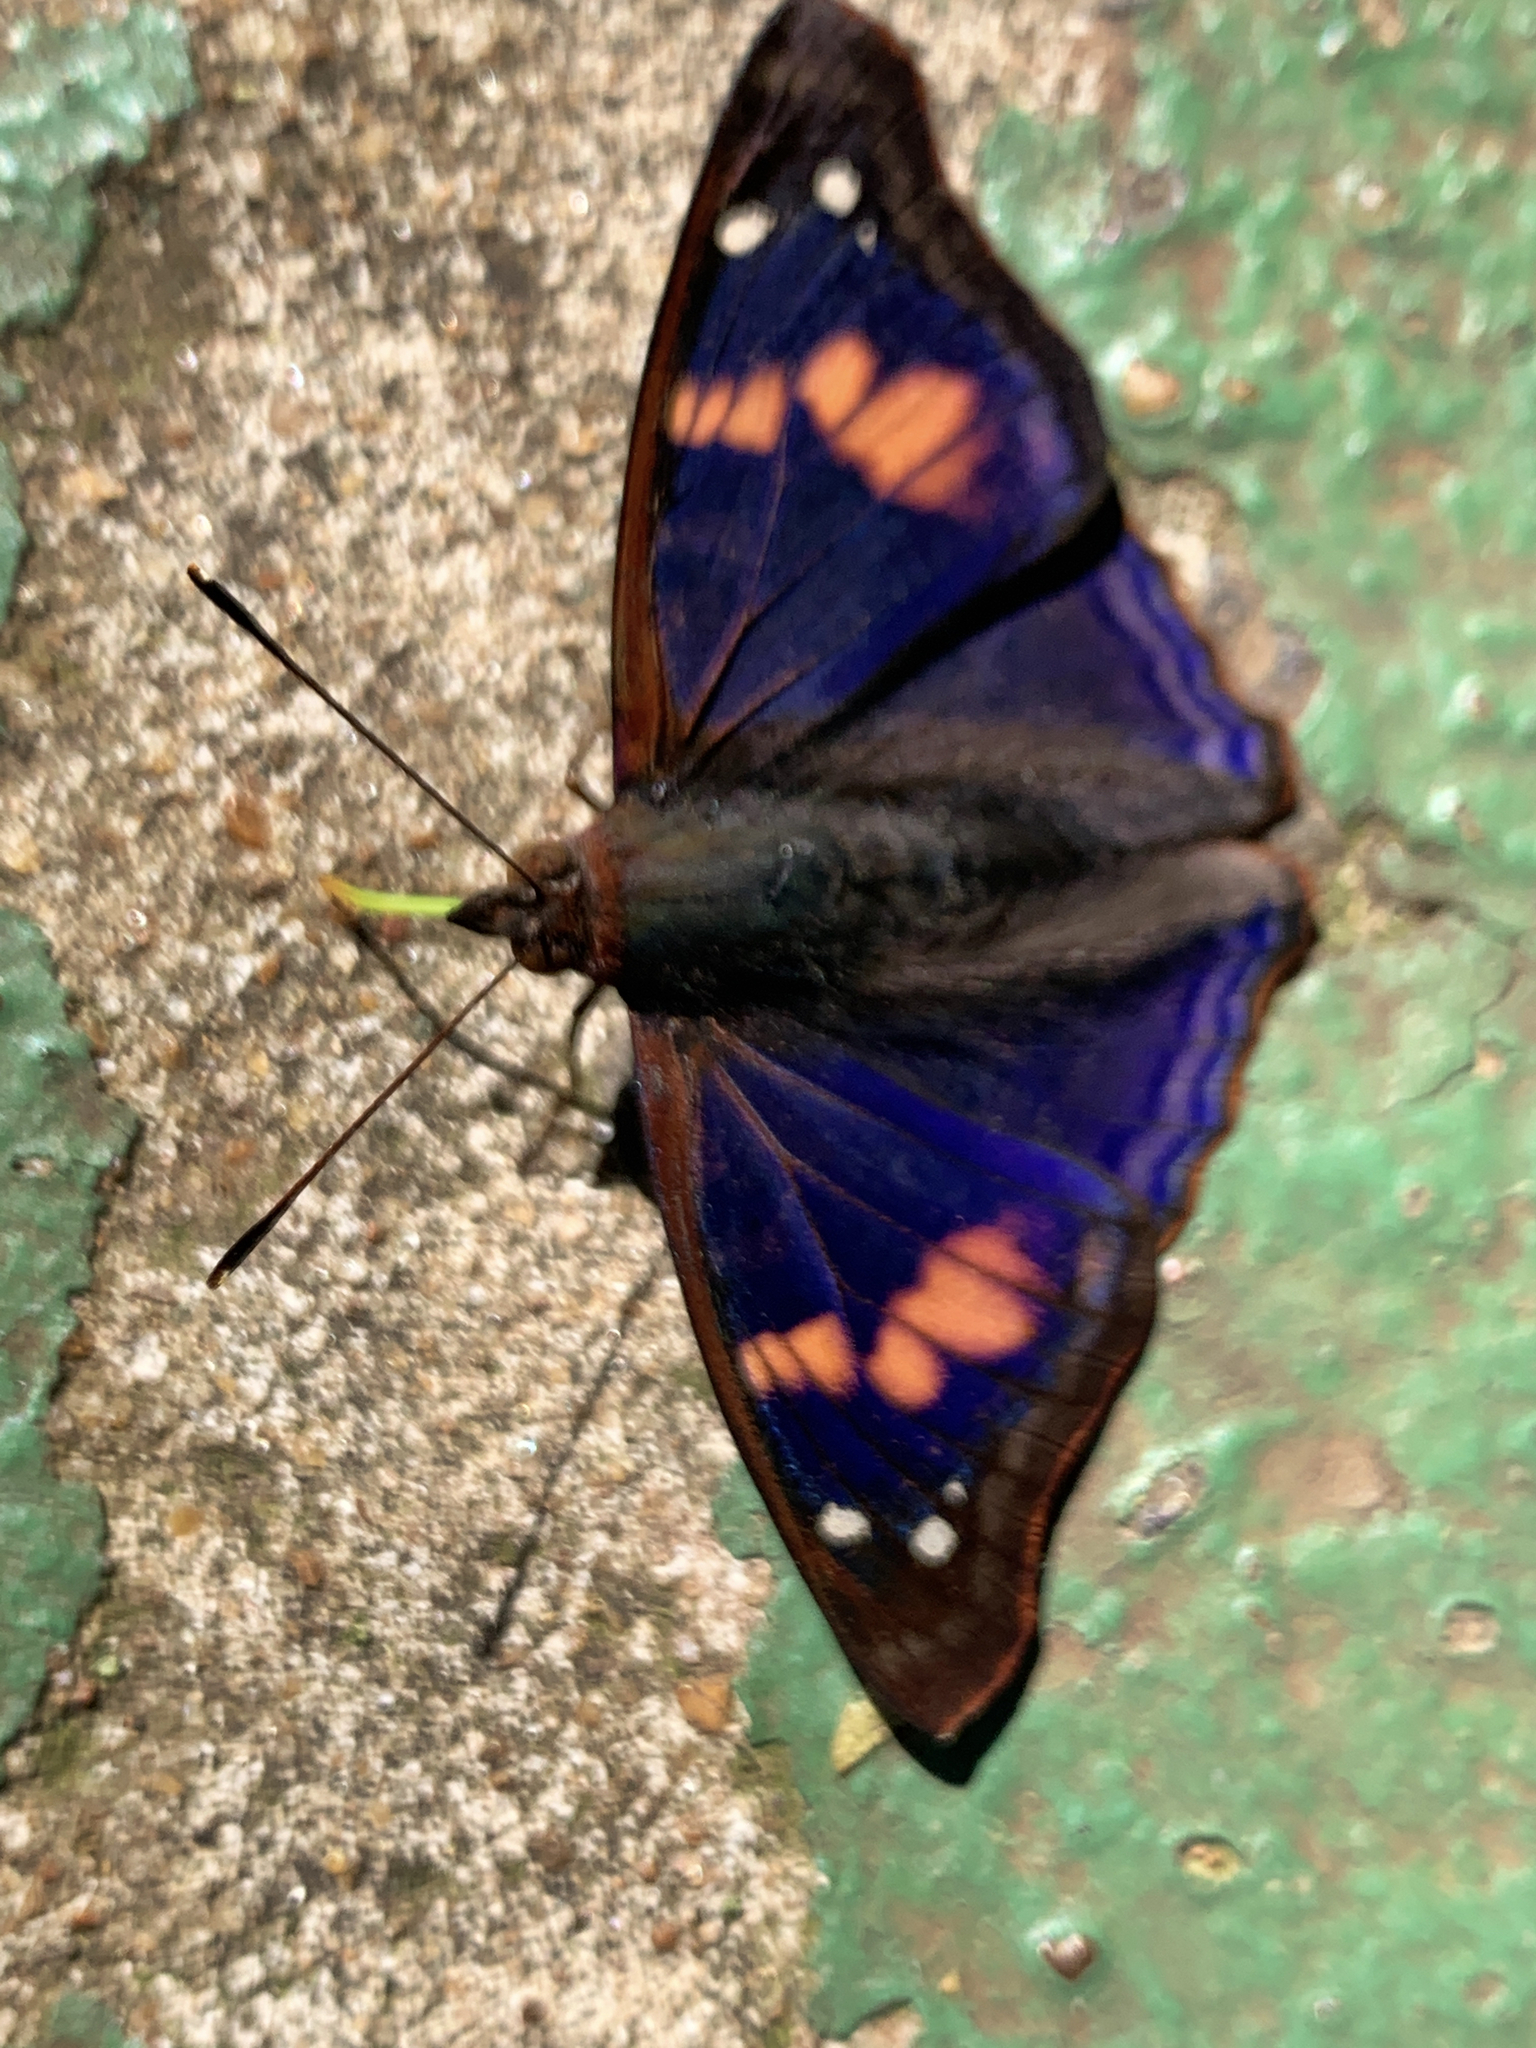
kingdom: Animalia
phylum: Arthropoda
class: Insecta
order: Lepidoptera
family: Nymphalidae
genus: Doxocopa
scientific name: Doxocopa agathina
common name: Agathina emperor
